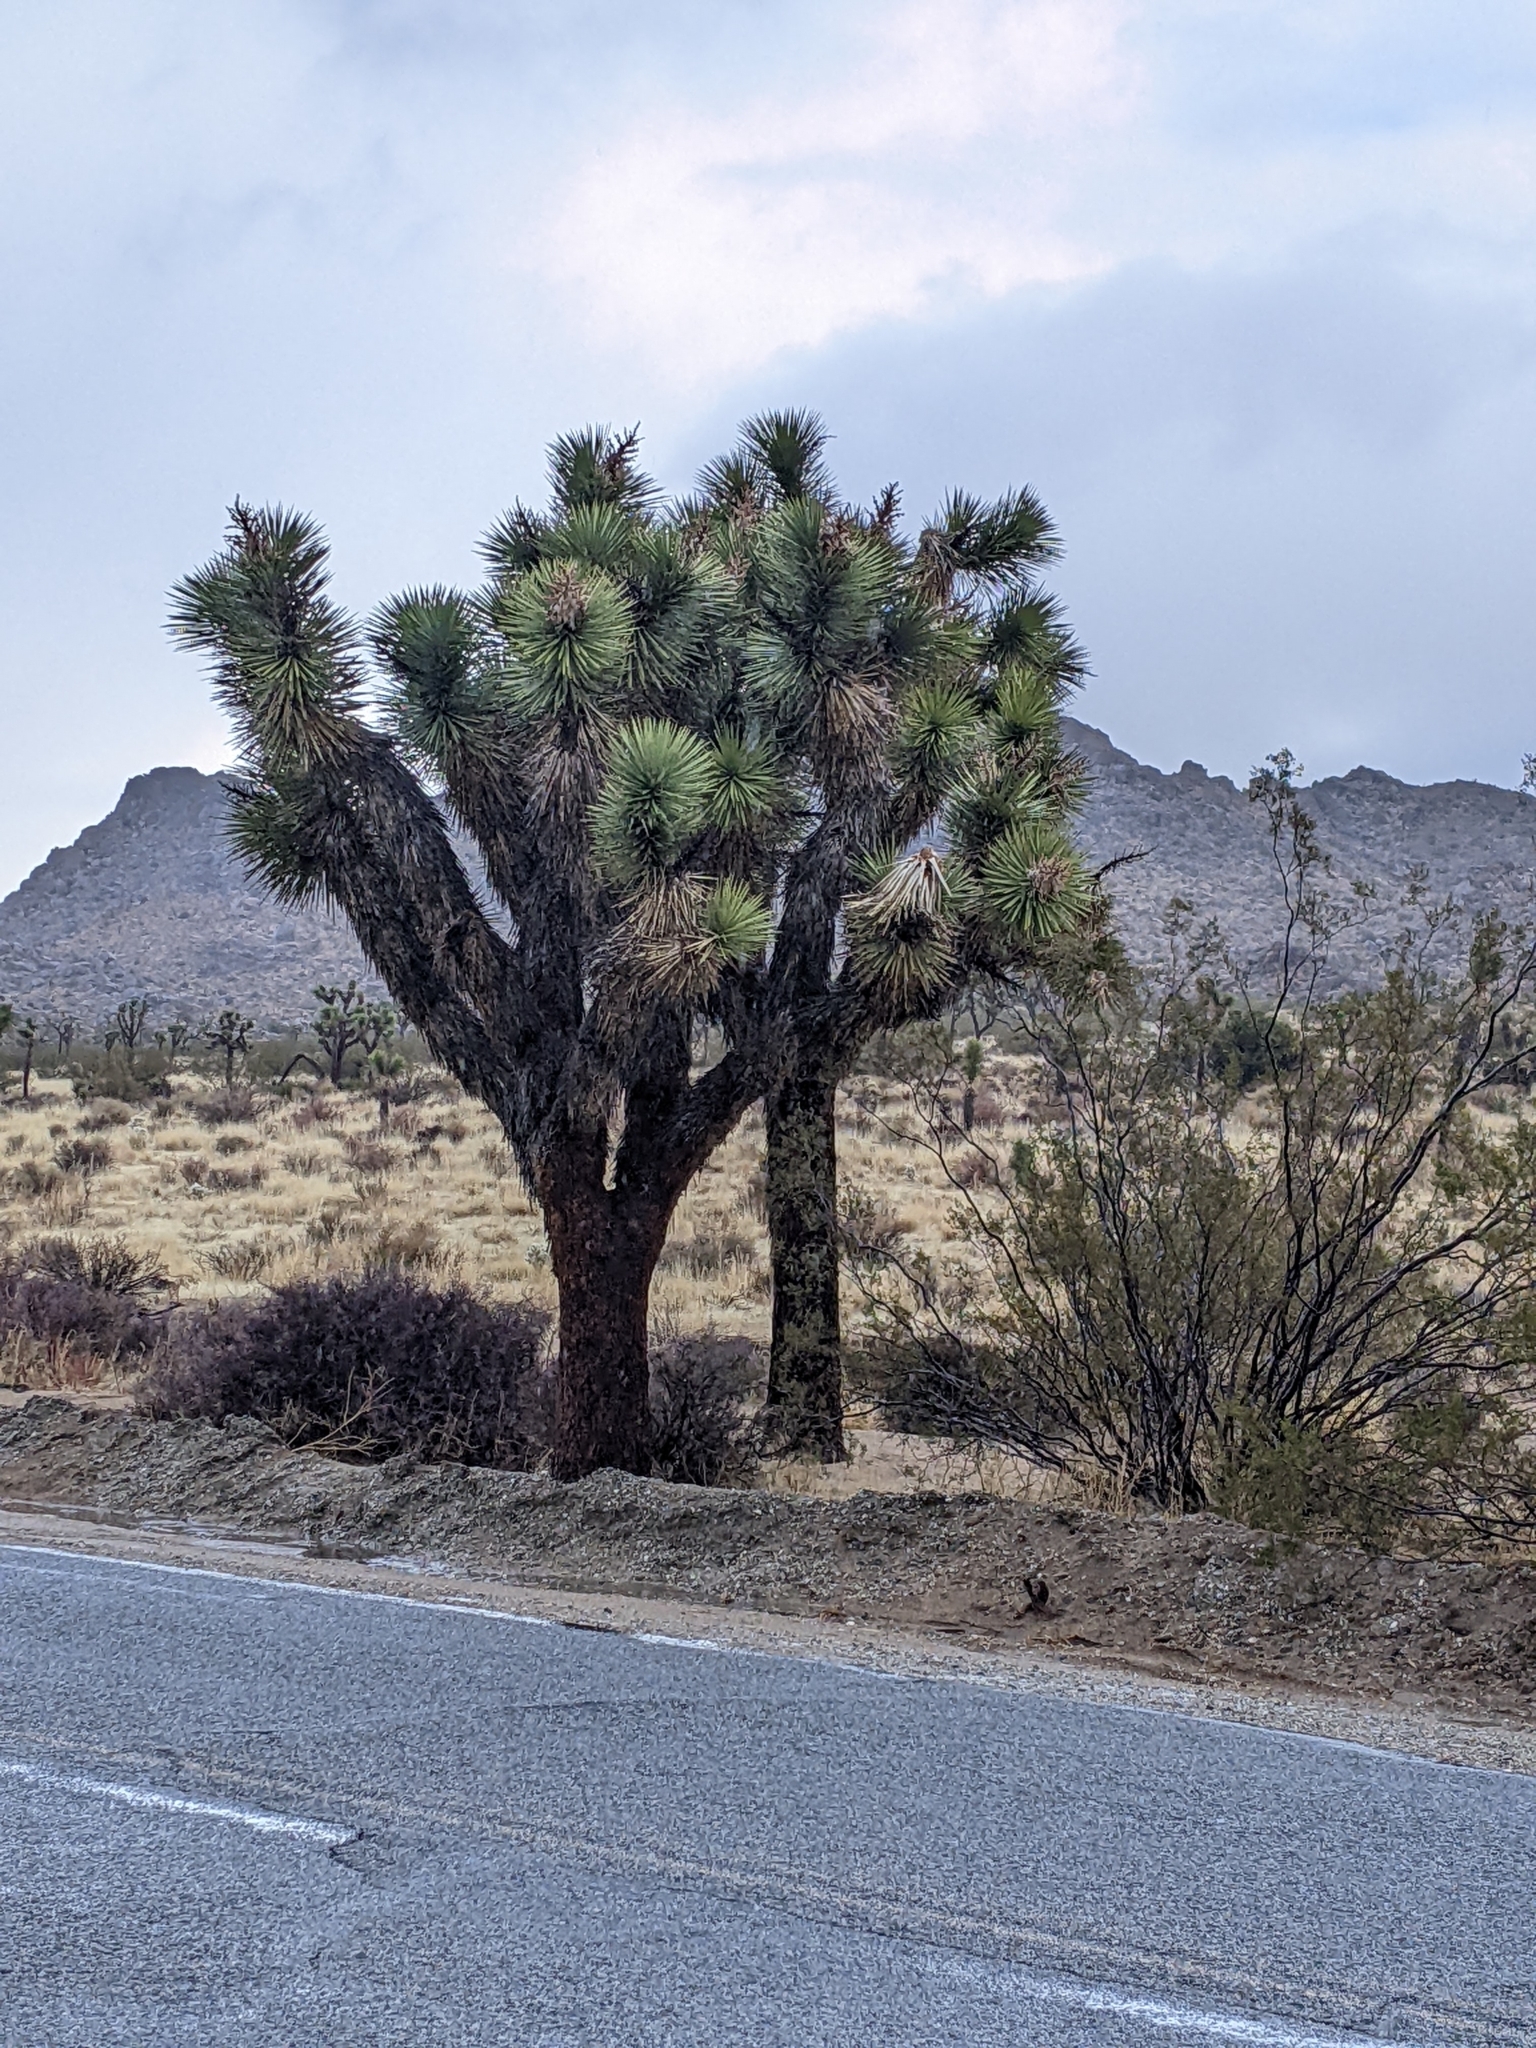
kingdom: Plantae
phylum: Tracheophyta
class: Liliopsida
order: Asparagales
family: Asparagaceae
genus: Yucca
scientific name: Yucca brevifolia
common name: Joshua tree
